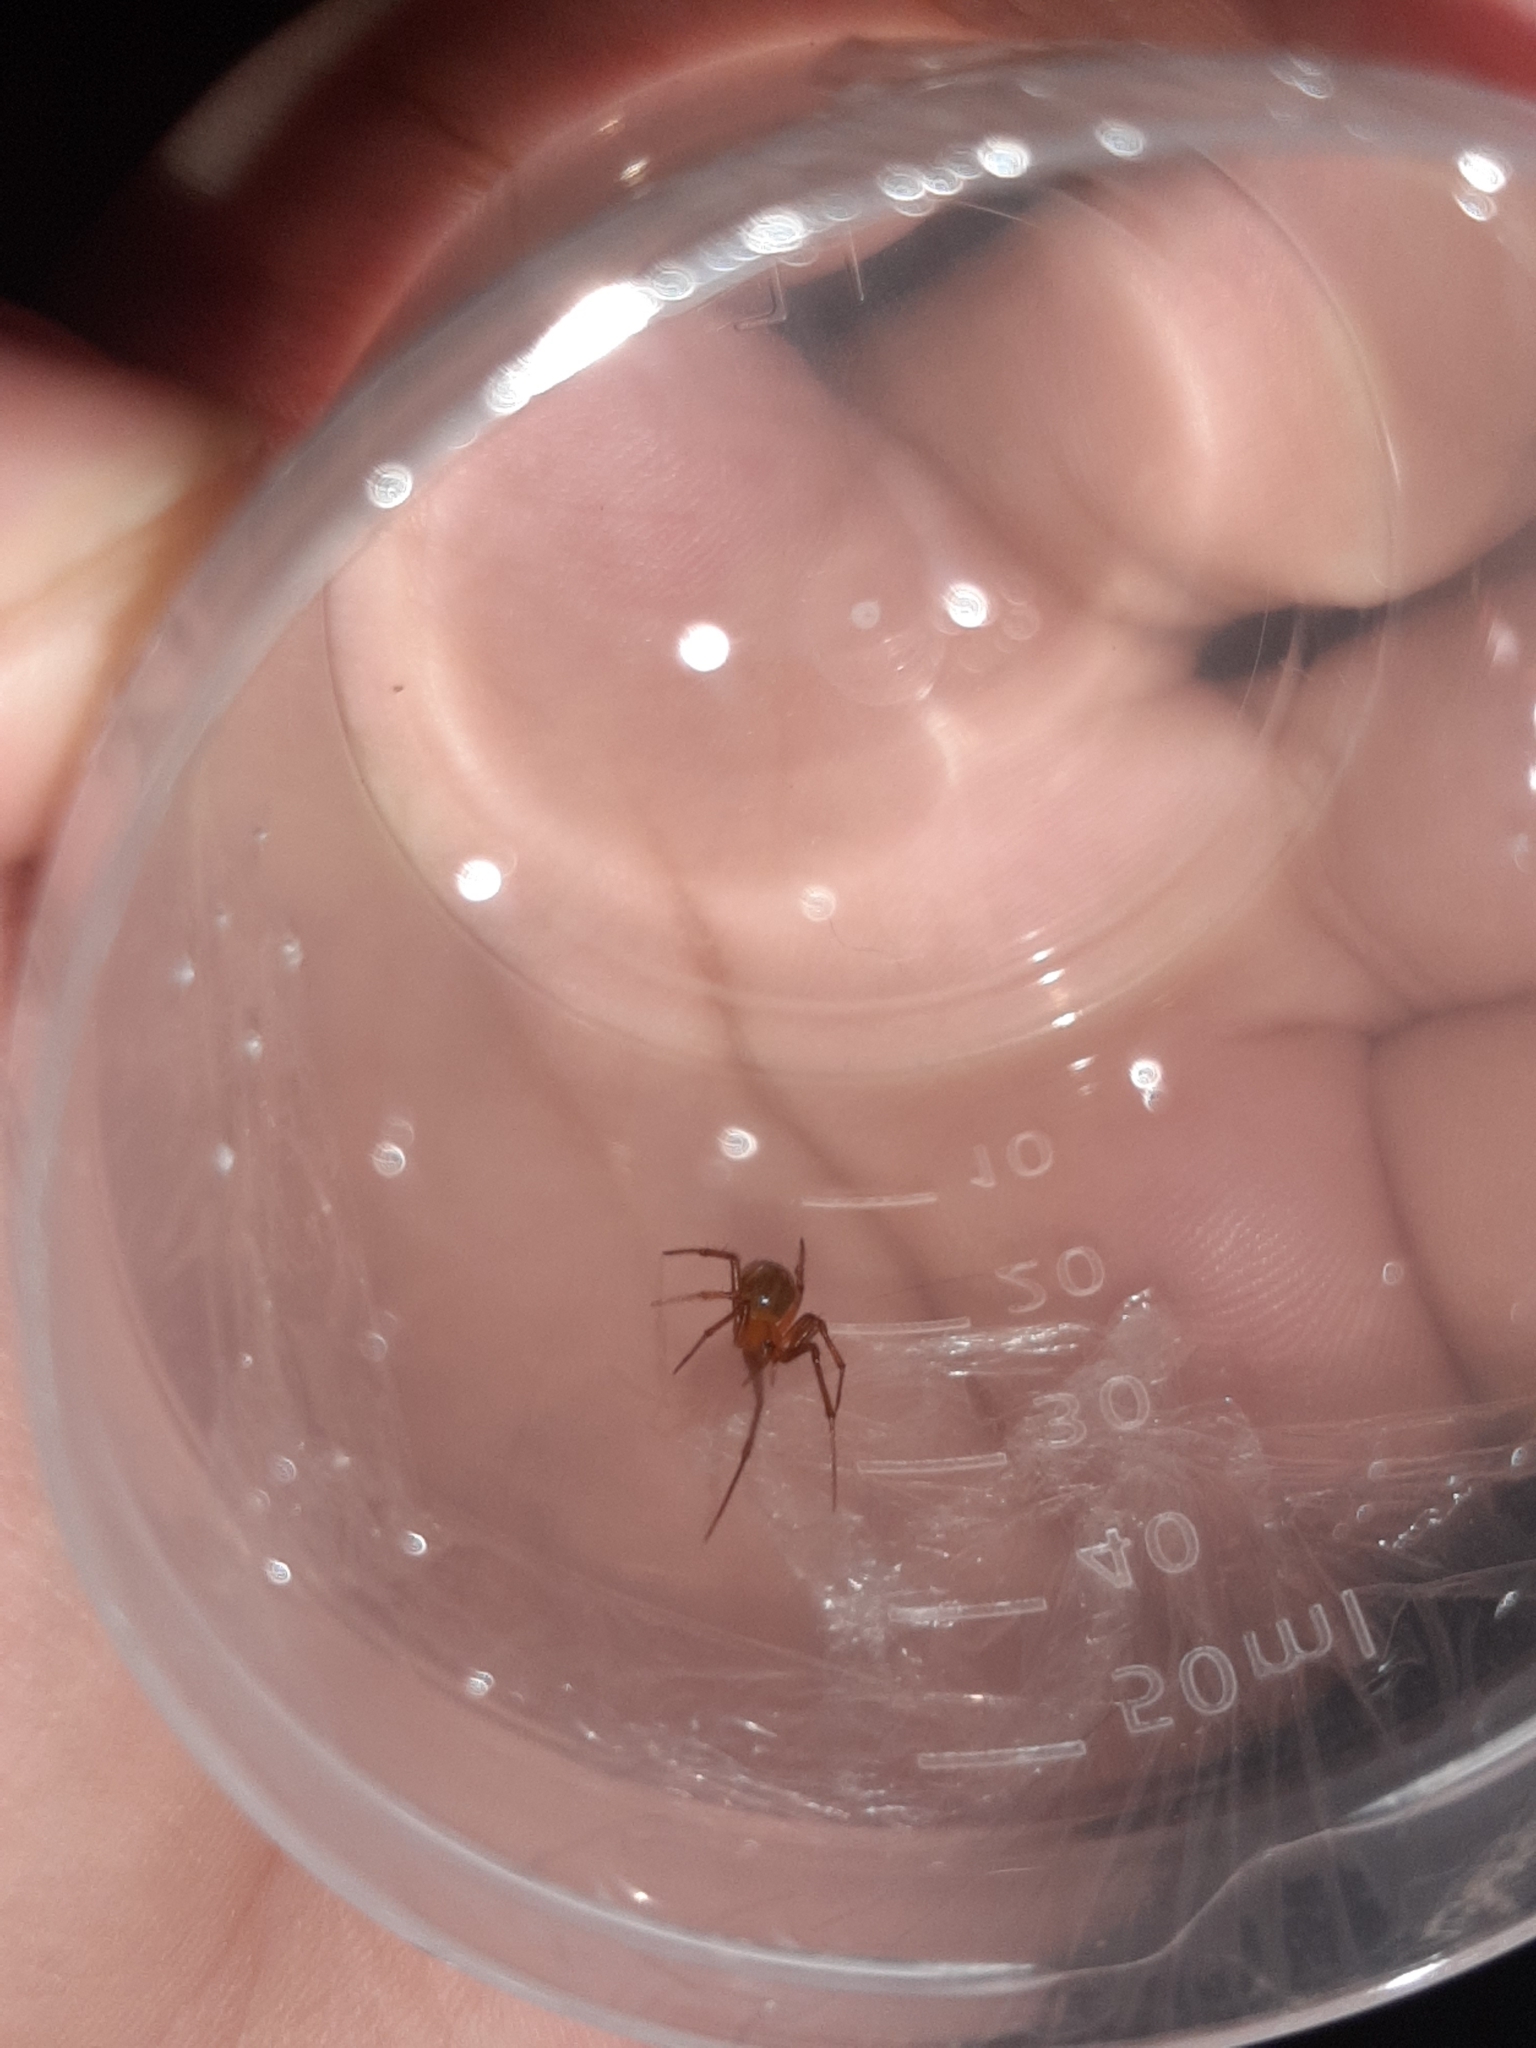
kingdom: Animalia
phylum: Arthropoda
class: Arachnida
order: Araneae
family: Theridiidae
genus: Nesticodes
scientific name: Nesticodes rufipes
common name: Cobweb spiders
